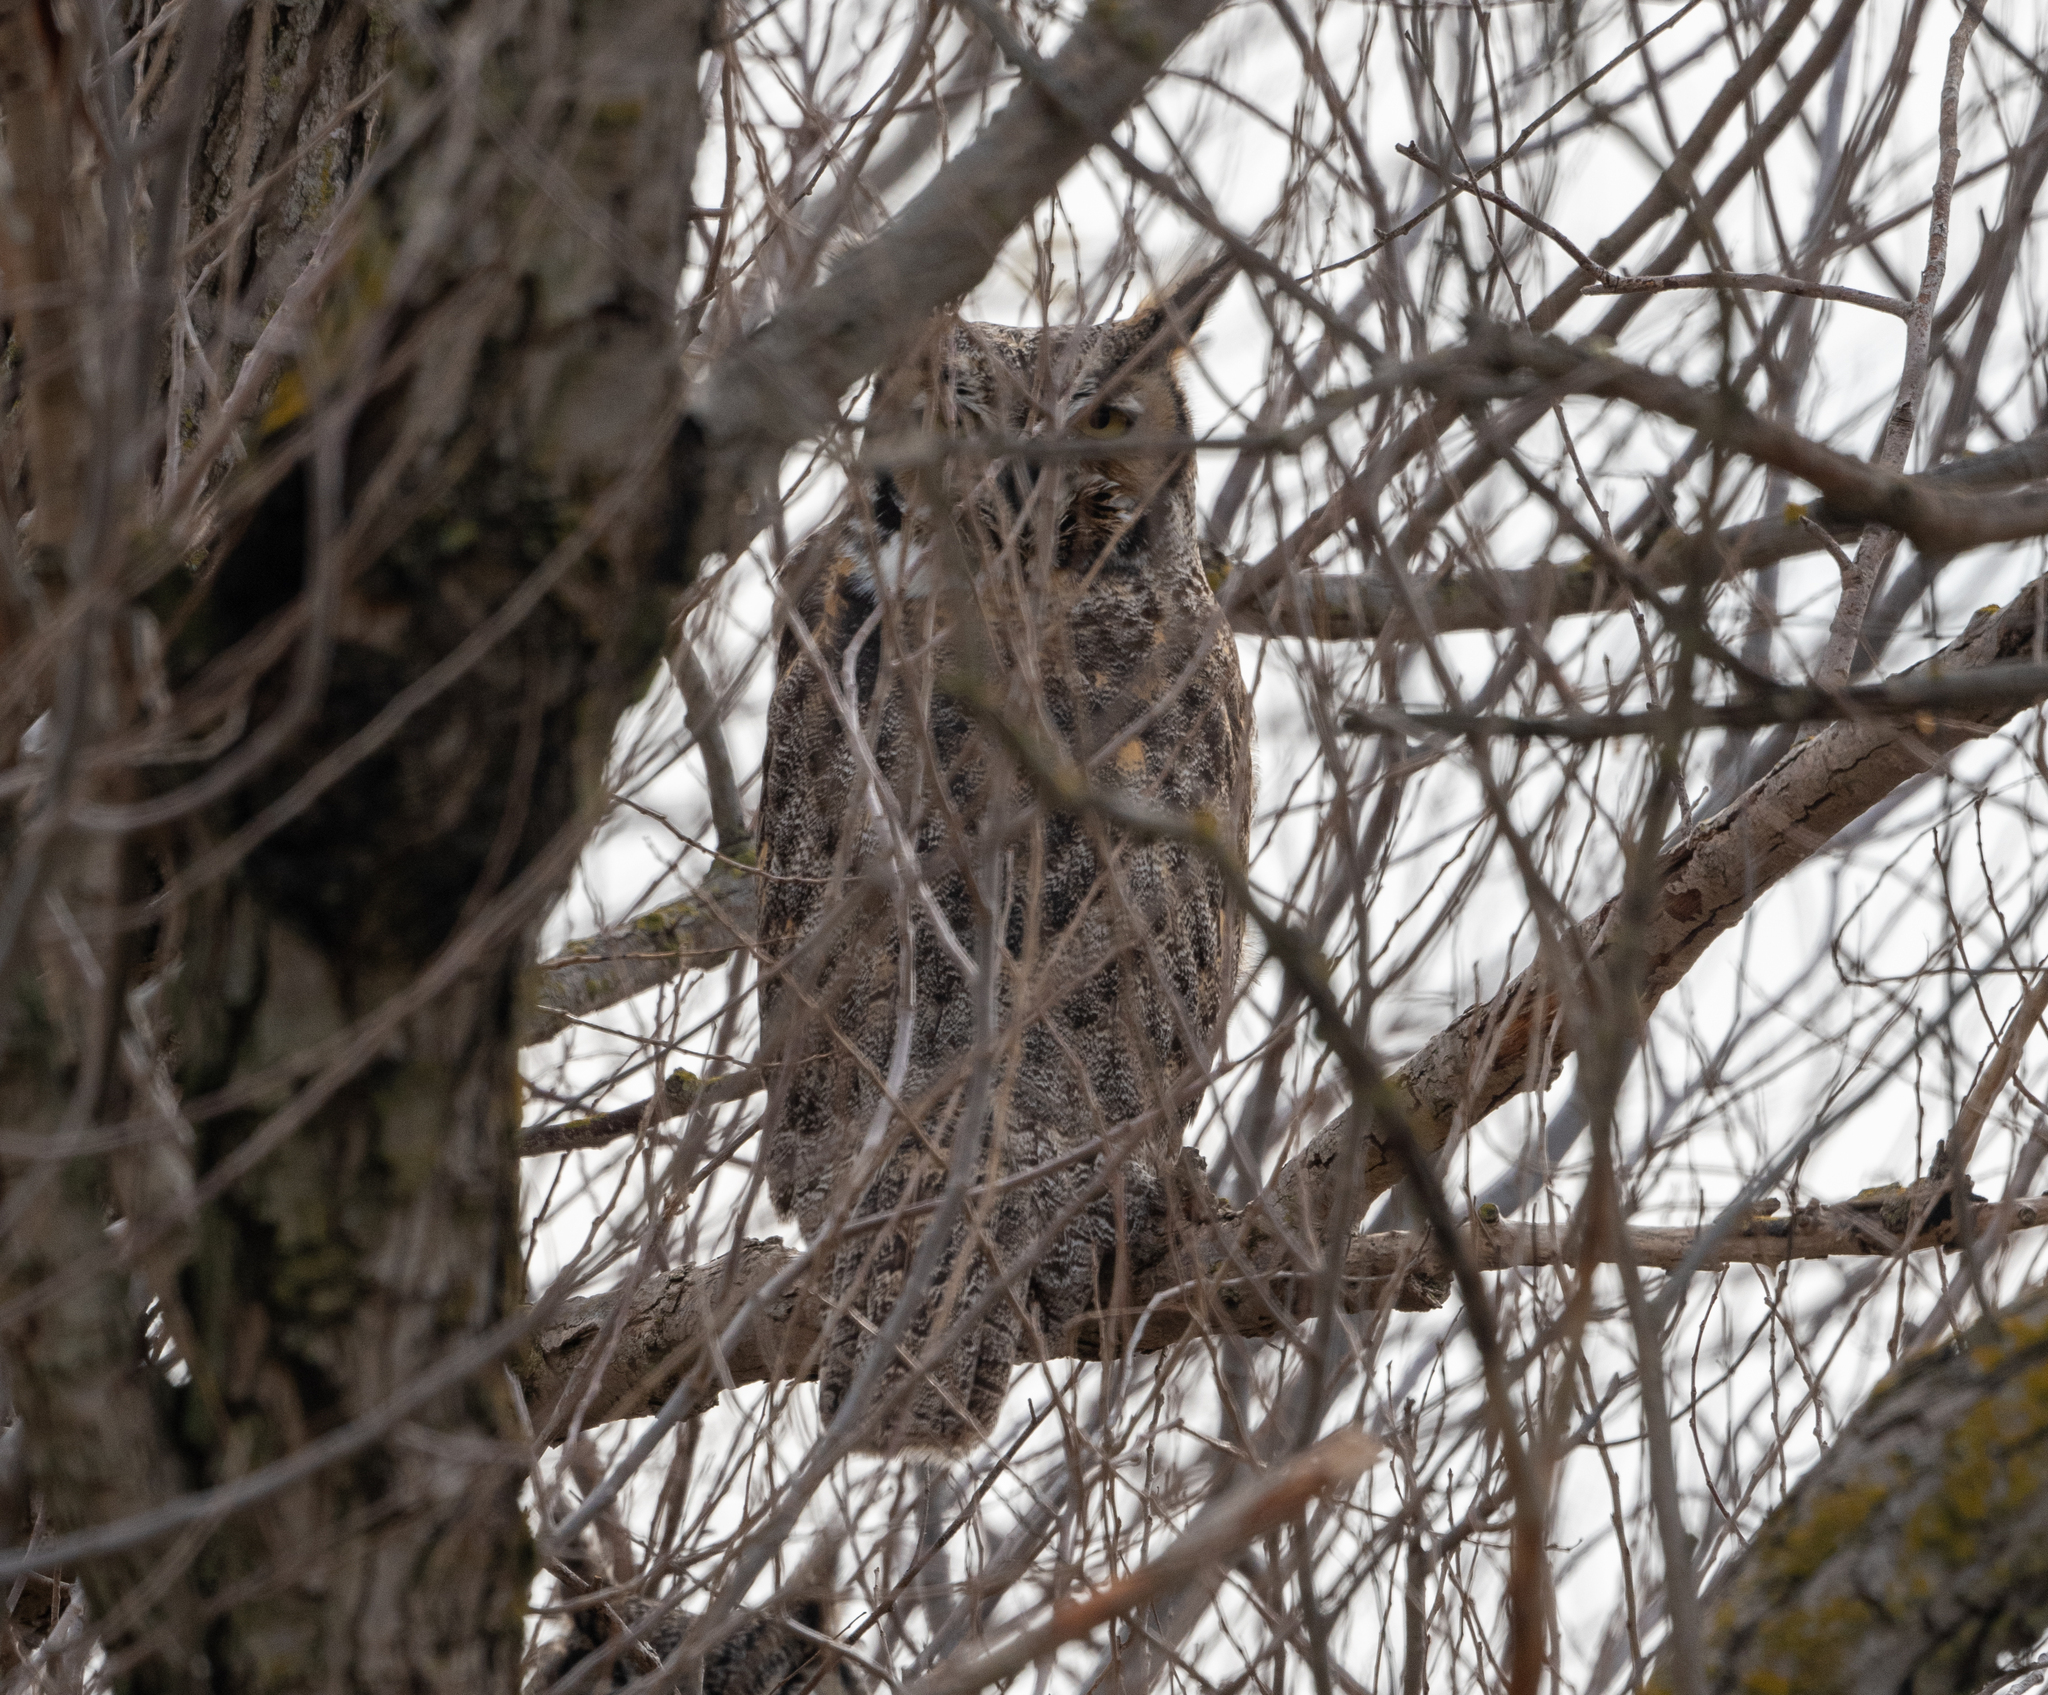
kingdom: Animalia
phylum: Chordata
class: Aves
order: Strigiformes
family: Strigidae
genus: Bubo
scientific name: Bubo virginianus
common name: Great horned owl
